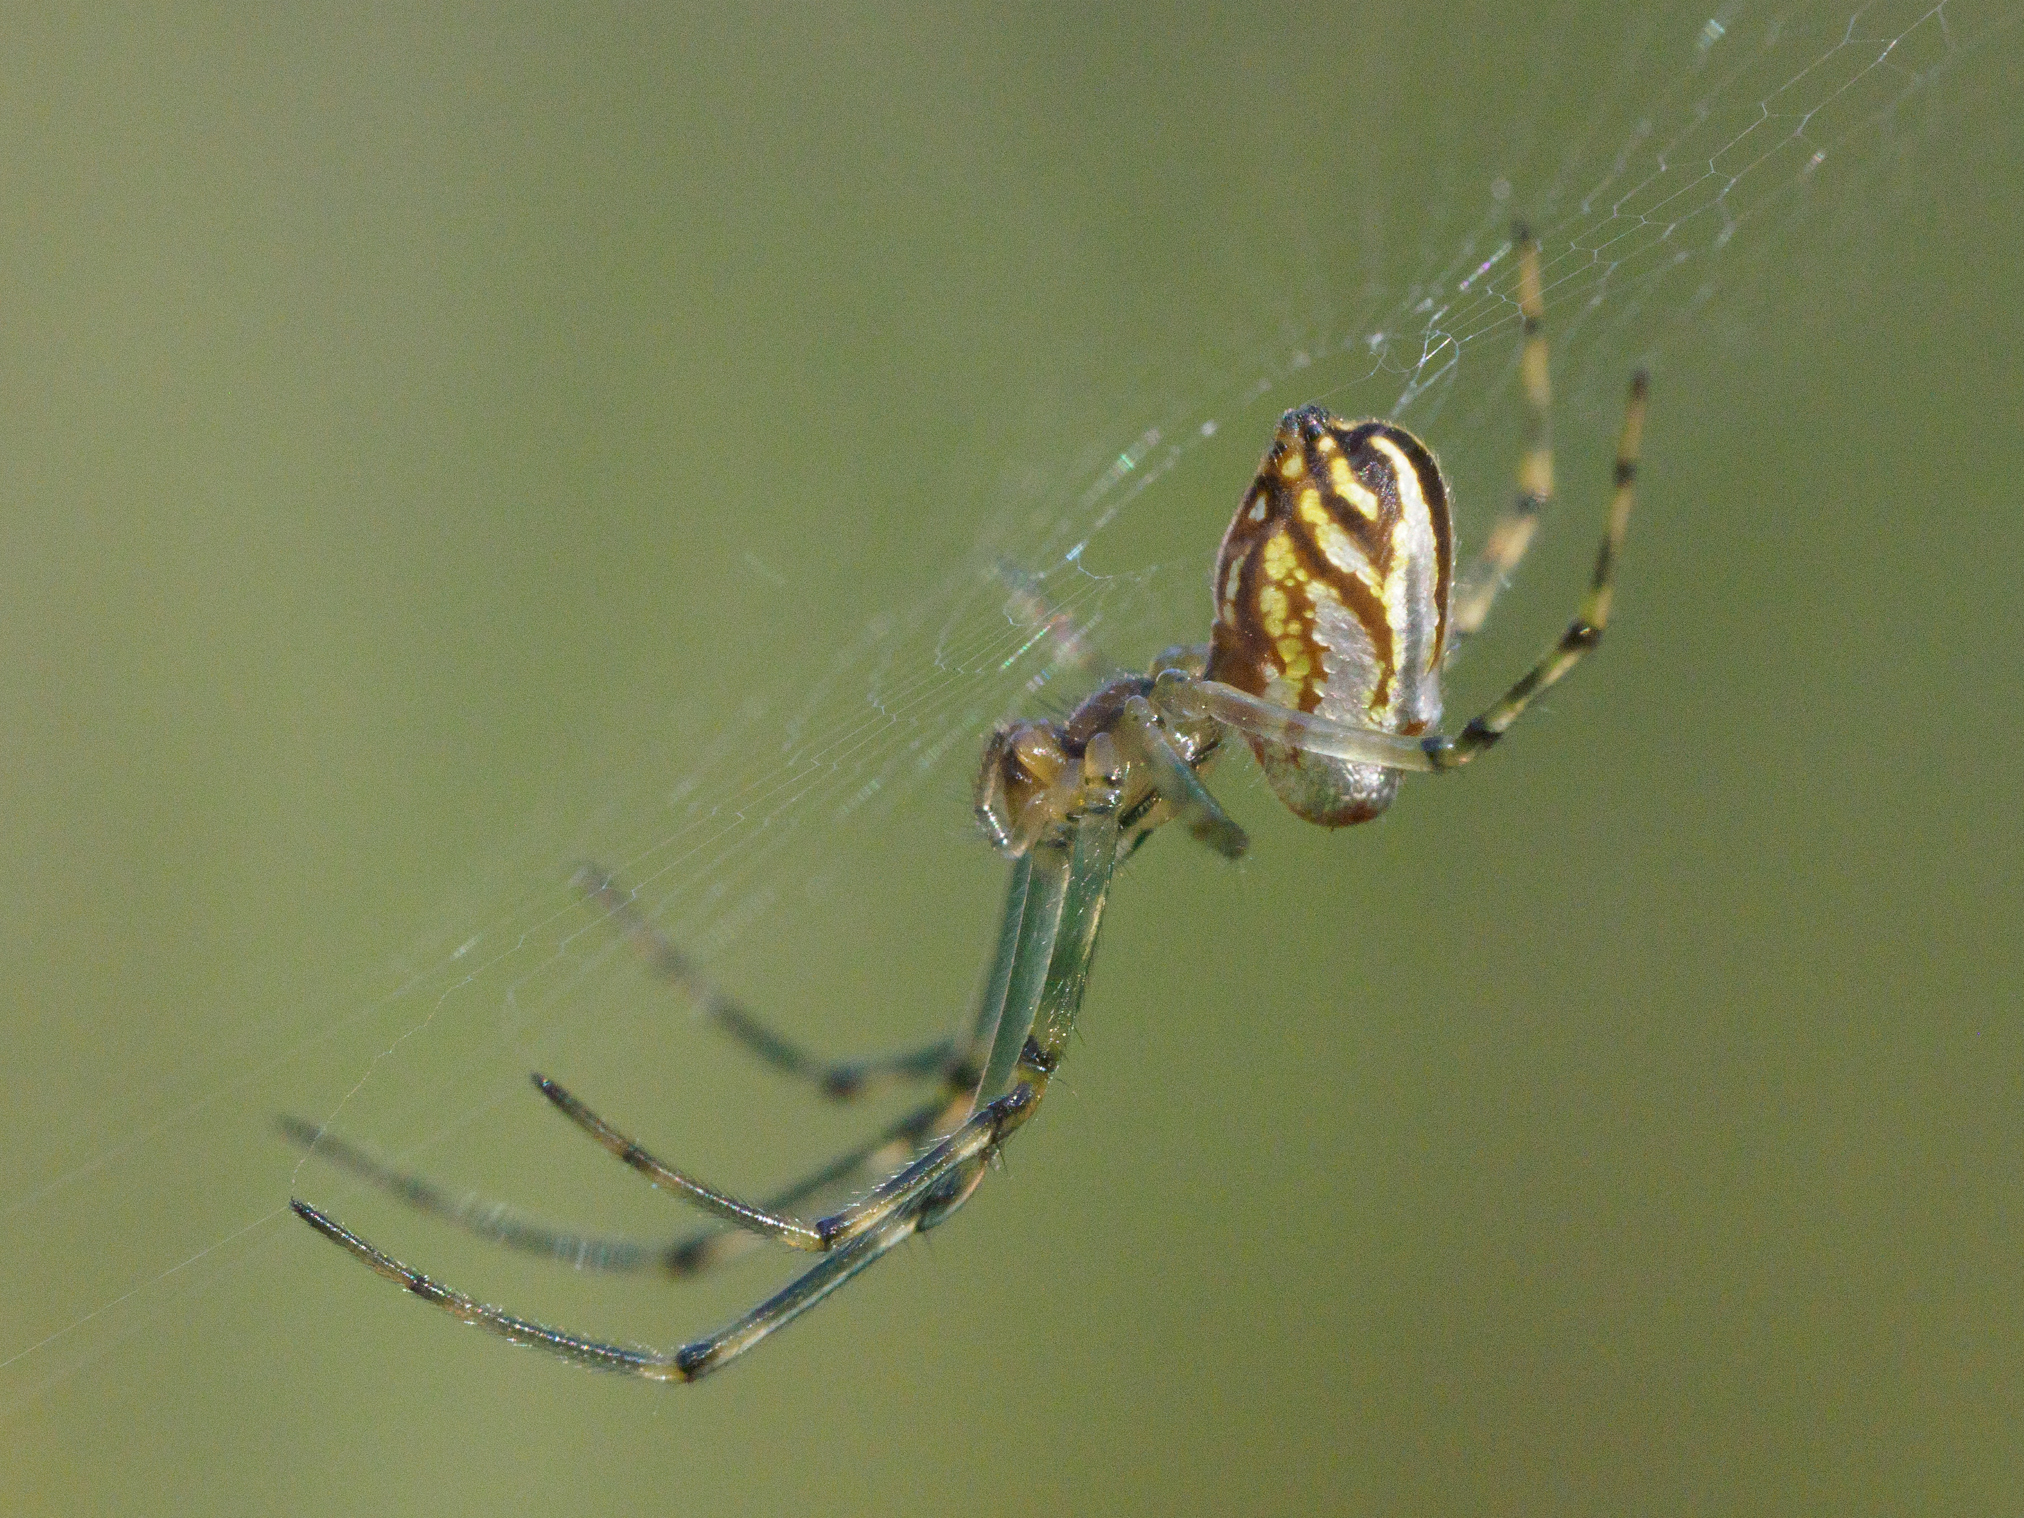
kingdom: Animalia
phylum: Arthropoda
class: Arachnida
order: Araneae
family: Tetragnathidae
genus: Leucauge
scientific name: Leucauge dromedaria
